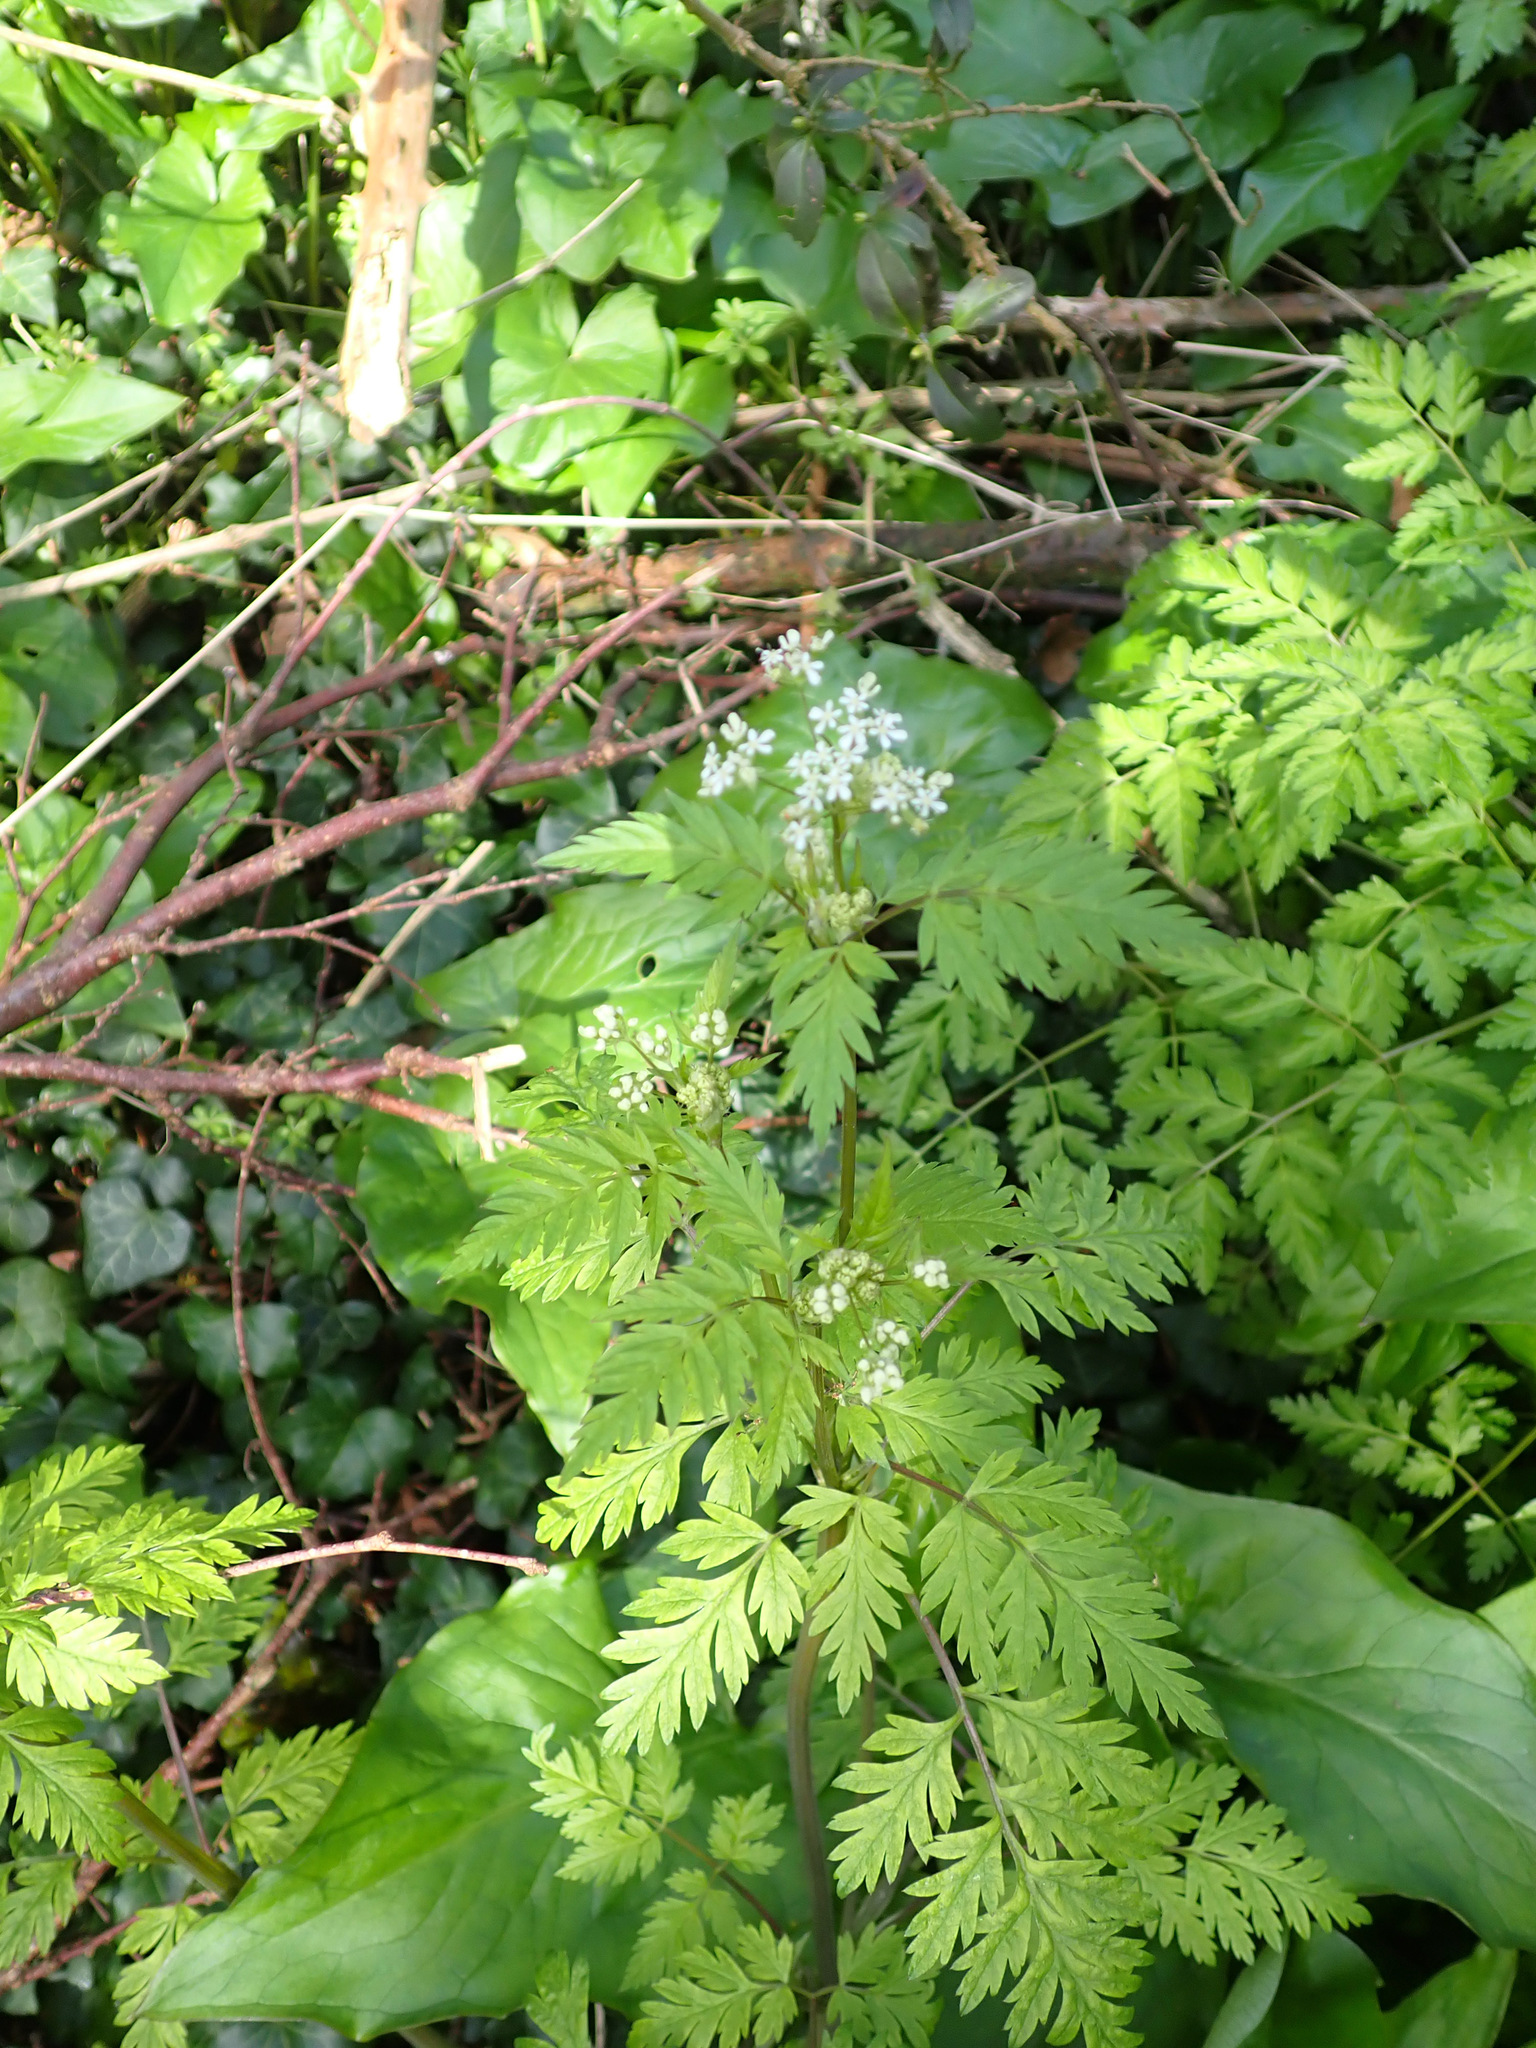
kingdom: Plantae
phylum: Tracheophyta
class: Magnoliopsida
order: Apiales
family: Apiaceae
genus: Anthriscus
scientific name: Anthriscus sylvestris
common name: Cow parsley
